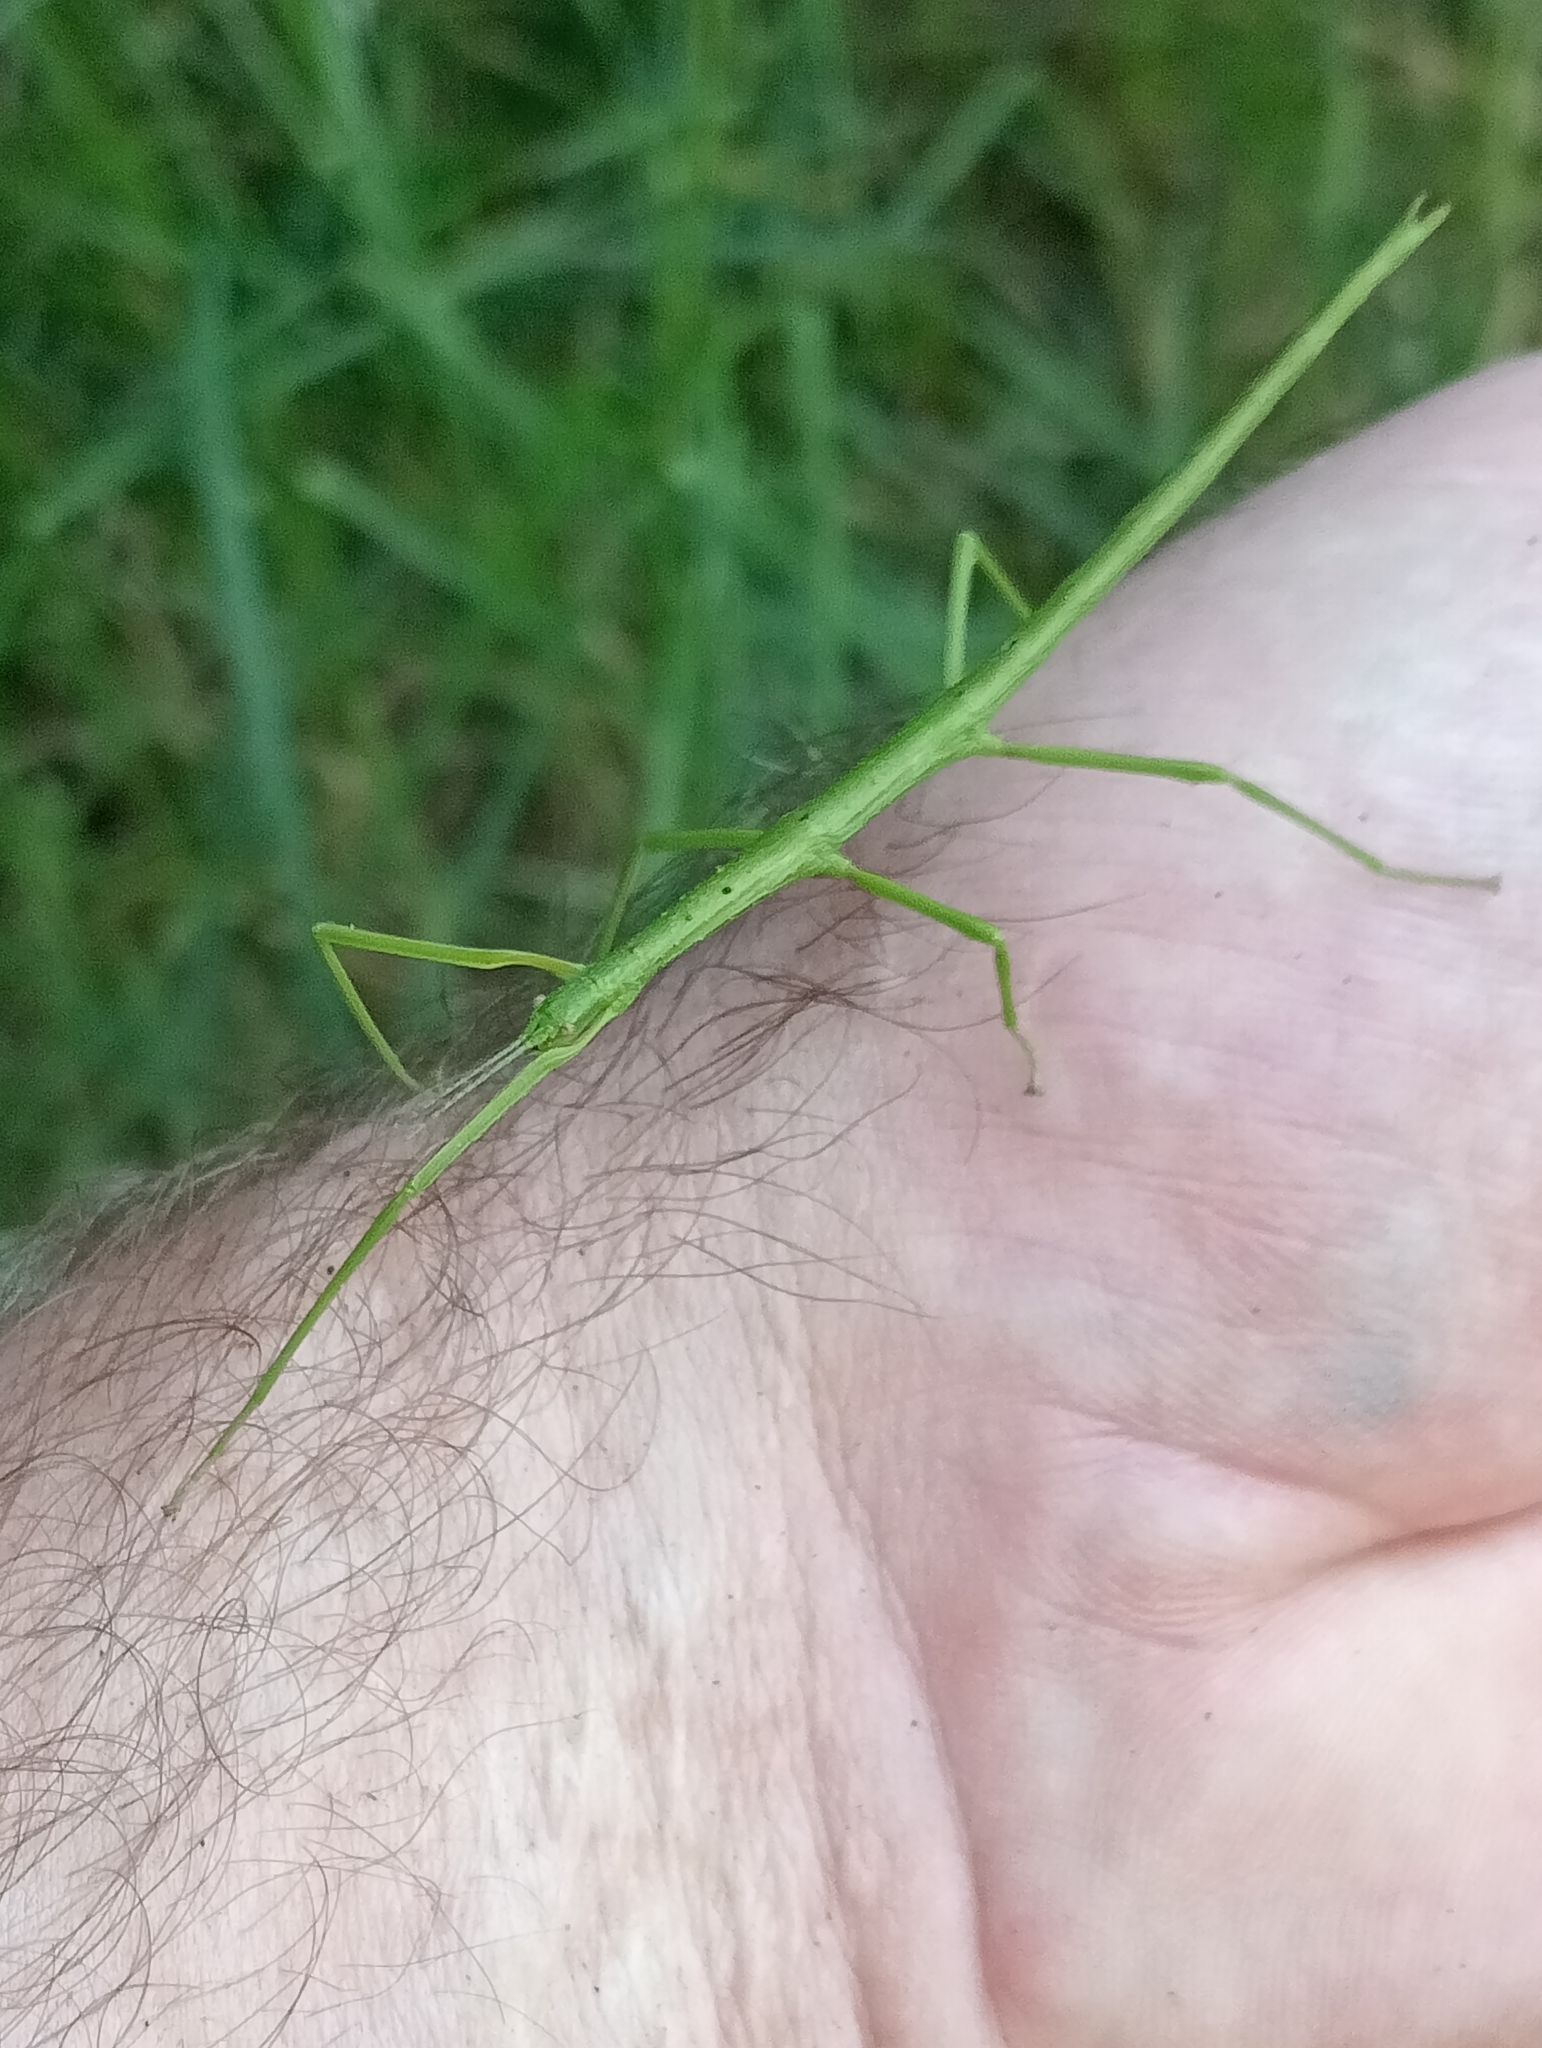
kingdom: Animalia
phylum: Arthropoda
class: Insecta
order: Phasmida
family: Phasmatidae
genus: Clitarchus
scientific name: Clitarchus hookeri
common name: Smooth stick insect
